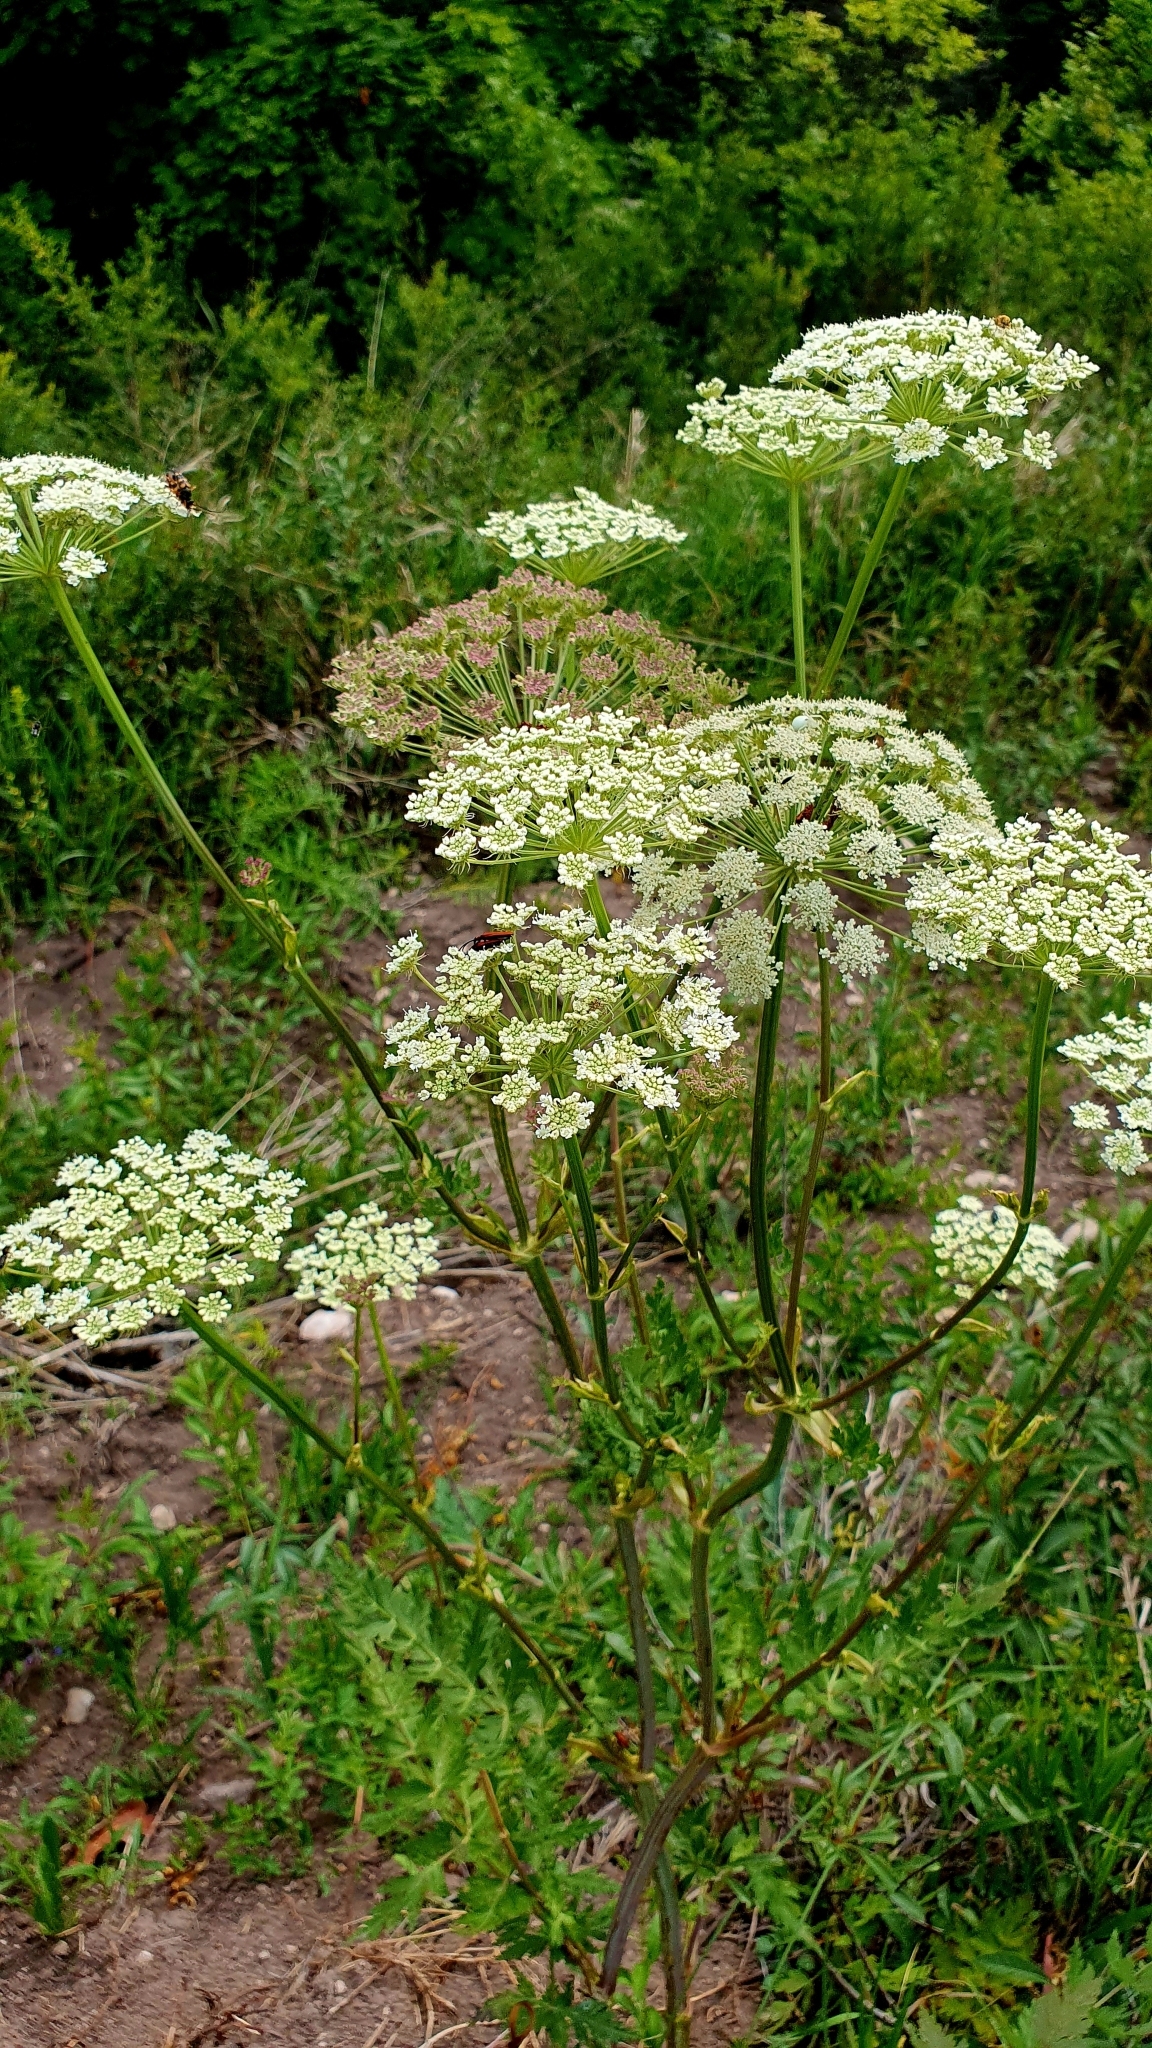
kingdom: Plantae
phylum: Tracheophyta
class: Magnoliopsida
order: Apiales
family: Apiaceae
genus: Seseli
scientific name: Seseli libanotis
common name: Mooncarrot
